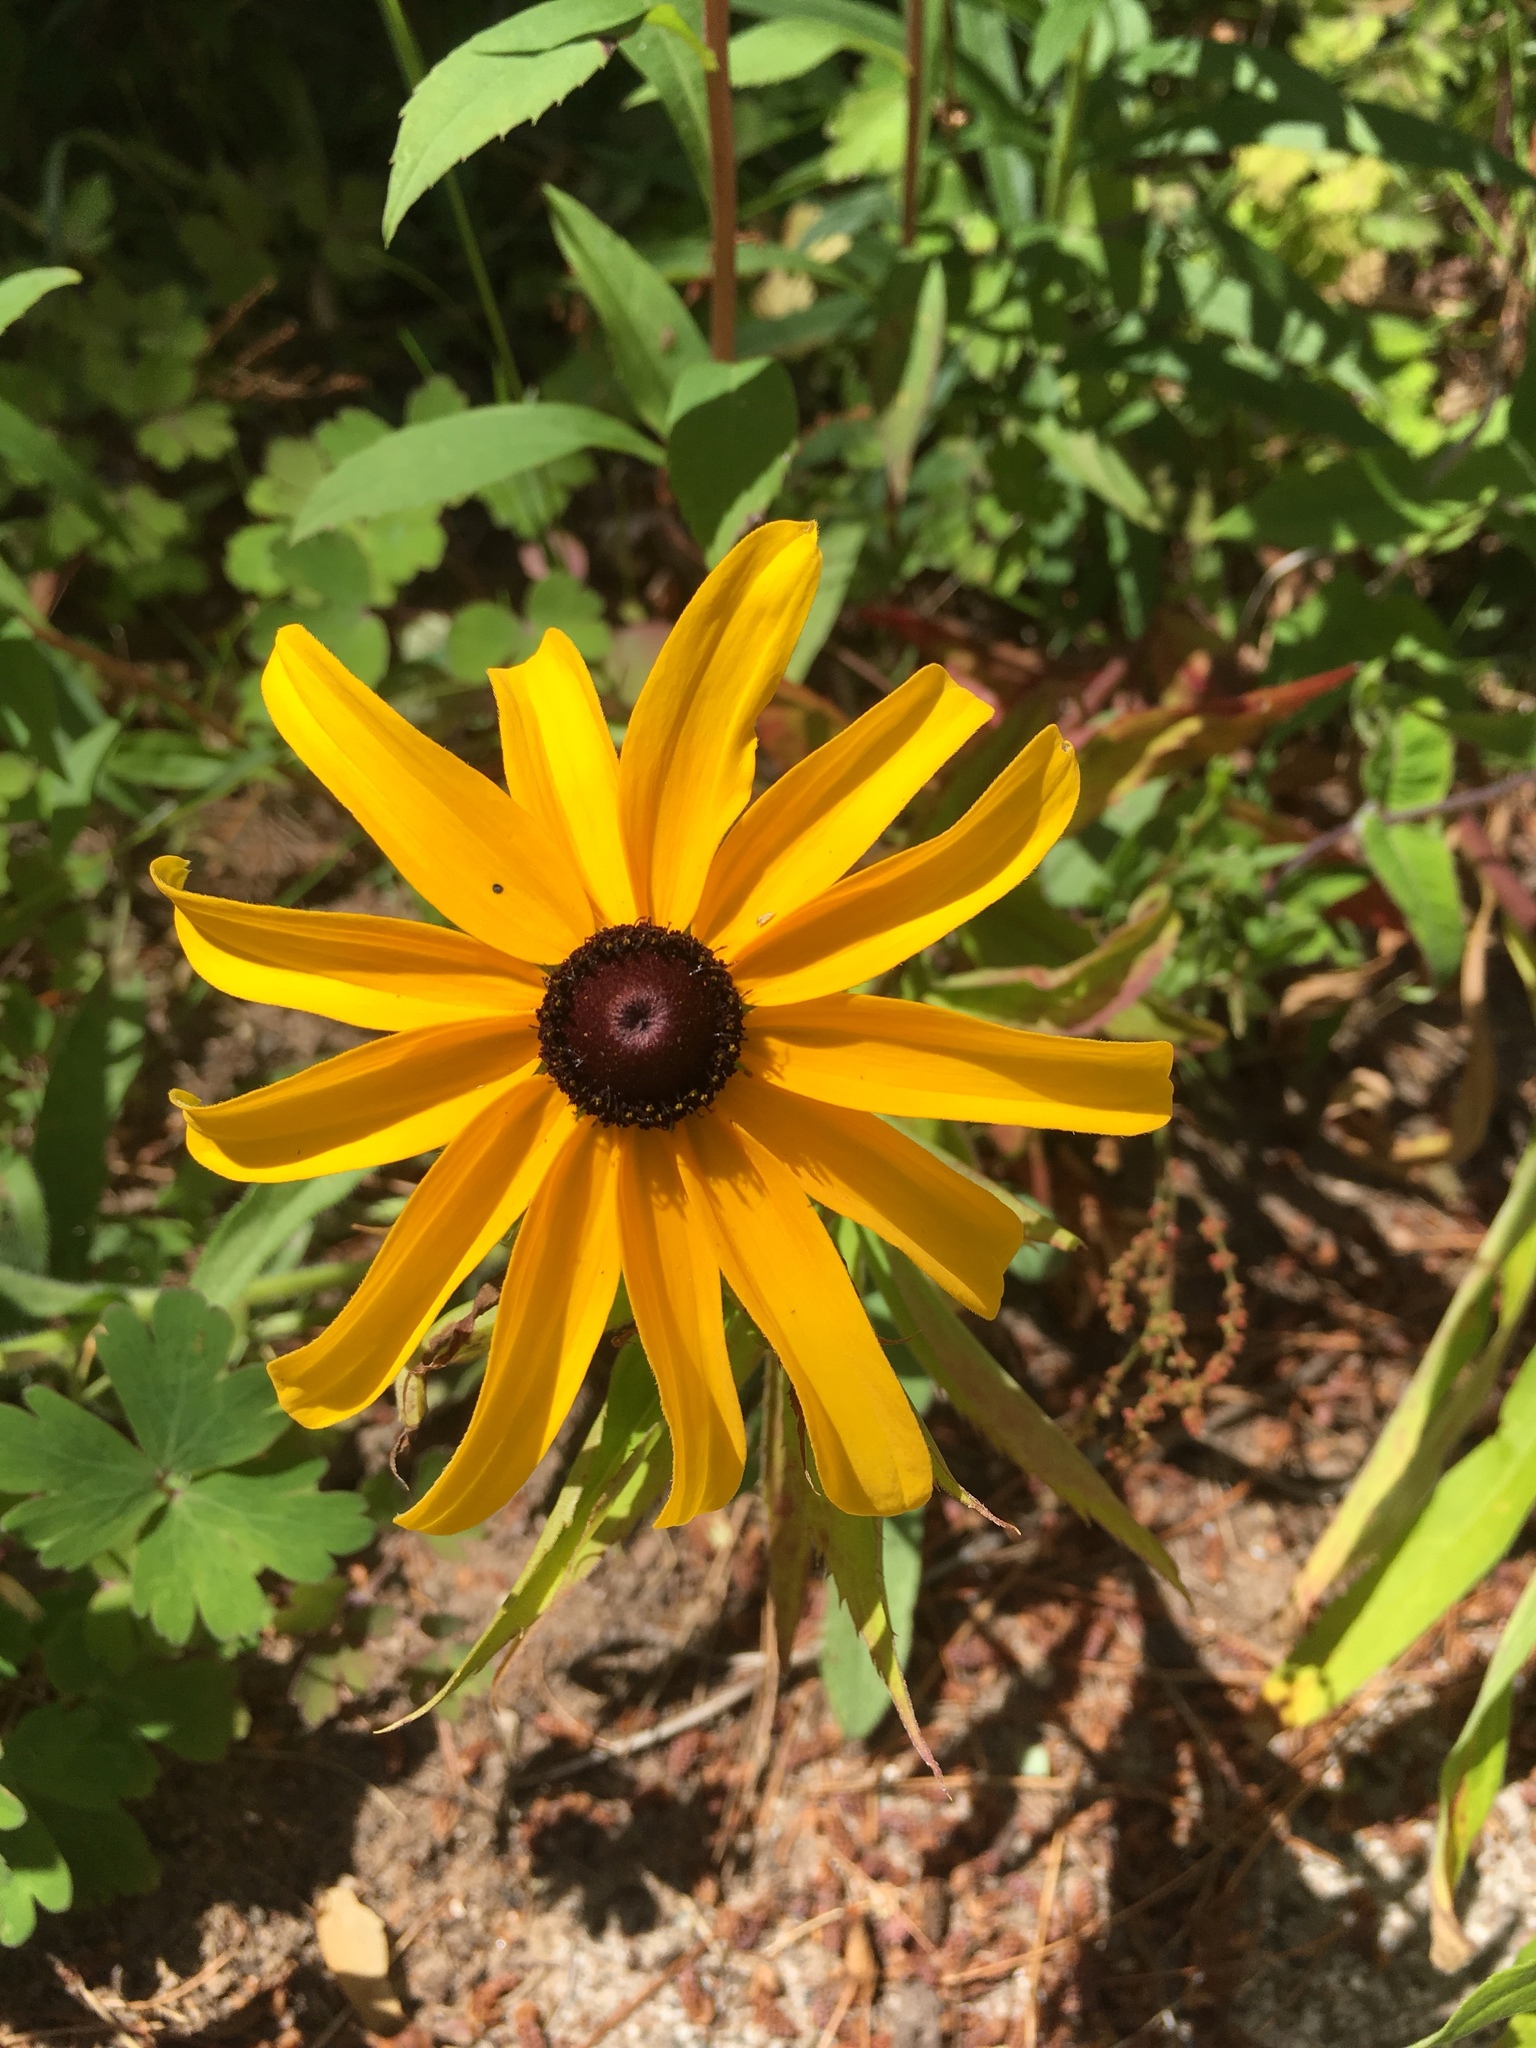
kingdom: Plantae
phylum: Tracheophyta
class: Magnoliopsida
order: Asterales
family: Asteraceae
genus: Rudbeckia
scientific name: Rudbeckia hirta
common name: Black-eyed-susan
